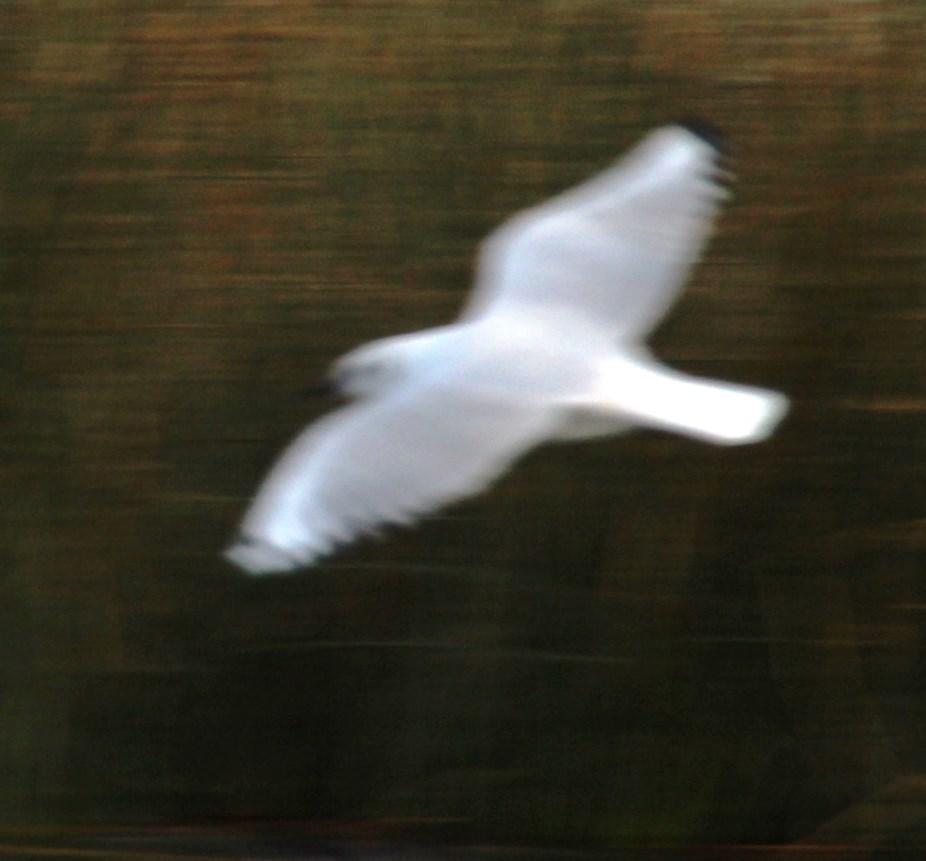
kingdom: Animalia
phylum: Chordata
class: Aves
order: Charadriiformes
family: Laridae
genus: Chroicocephalus
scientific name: Chroicocephalus serranus
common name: Andean gull
